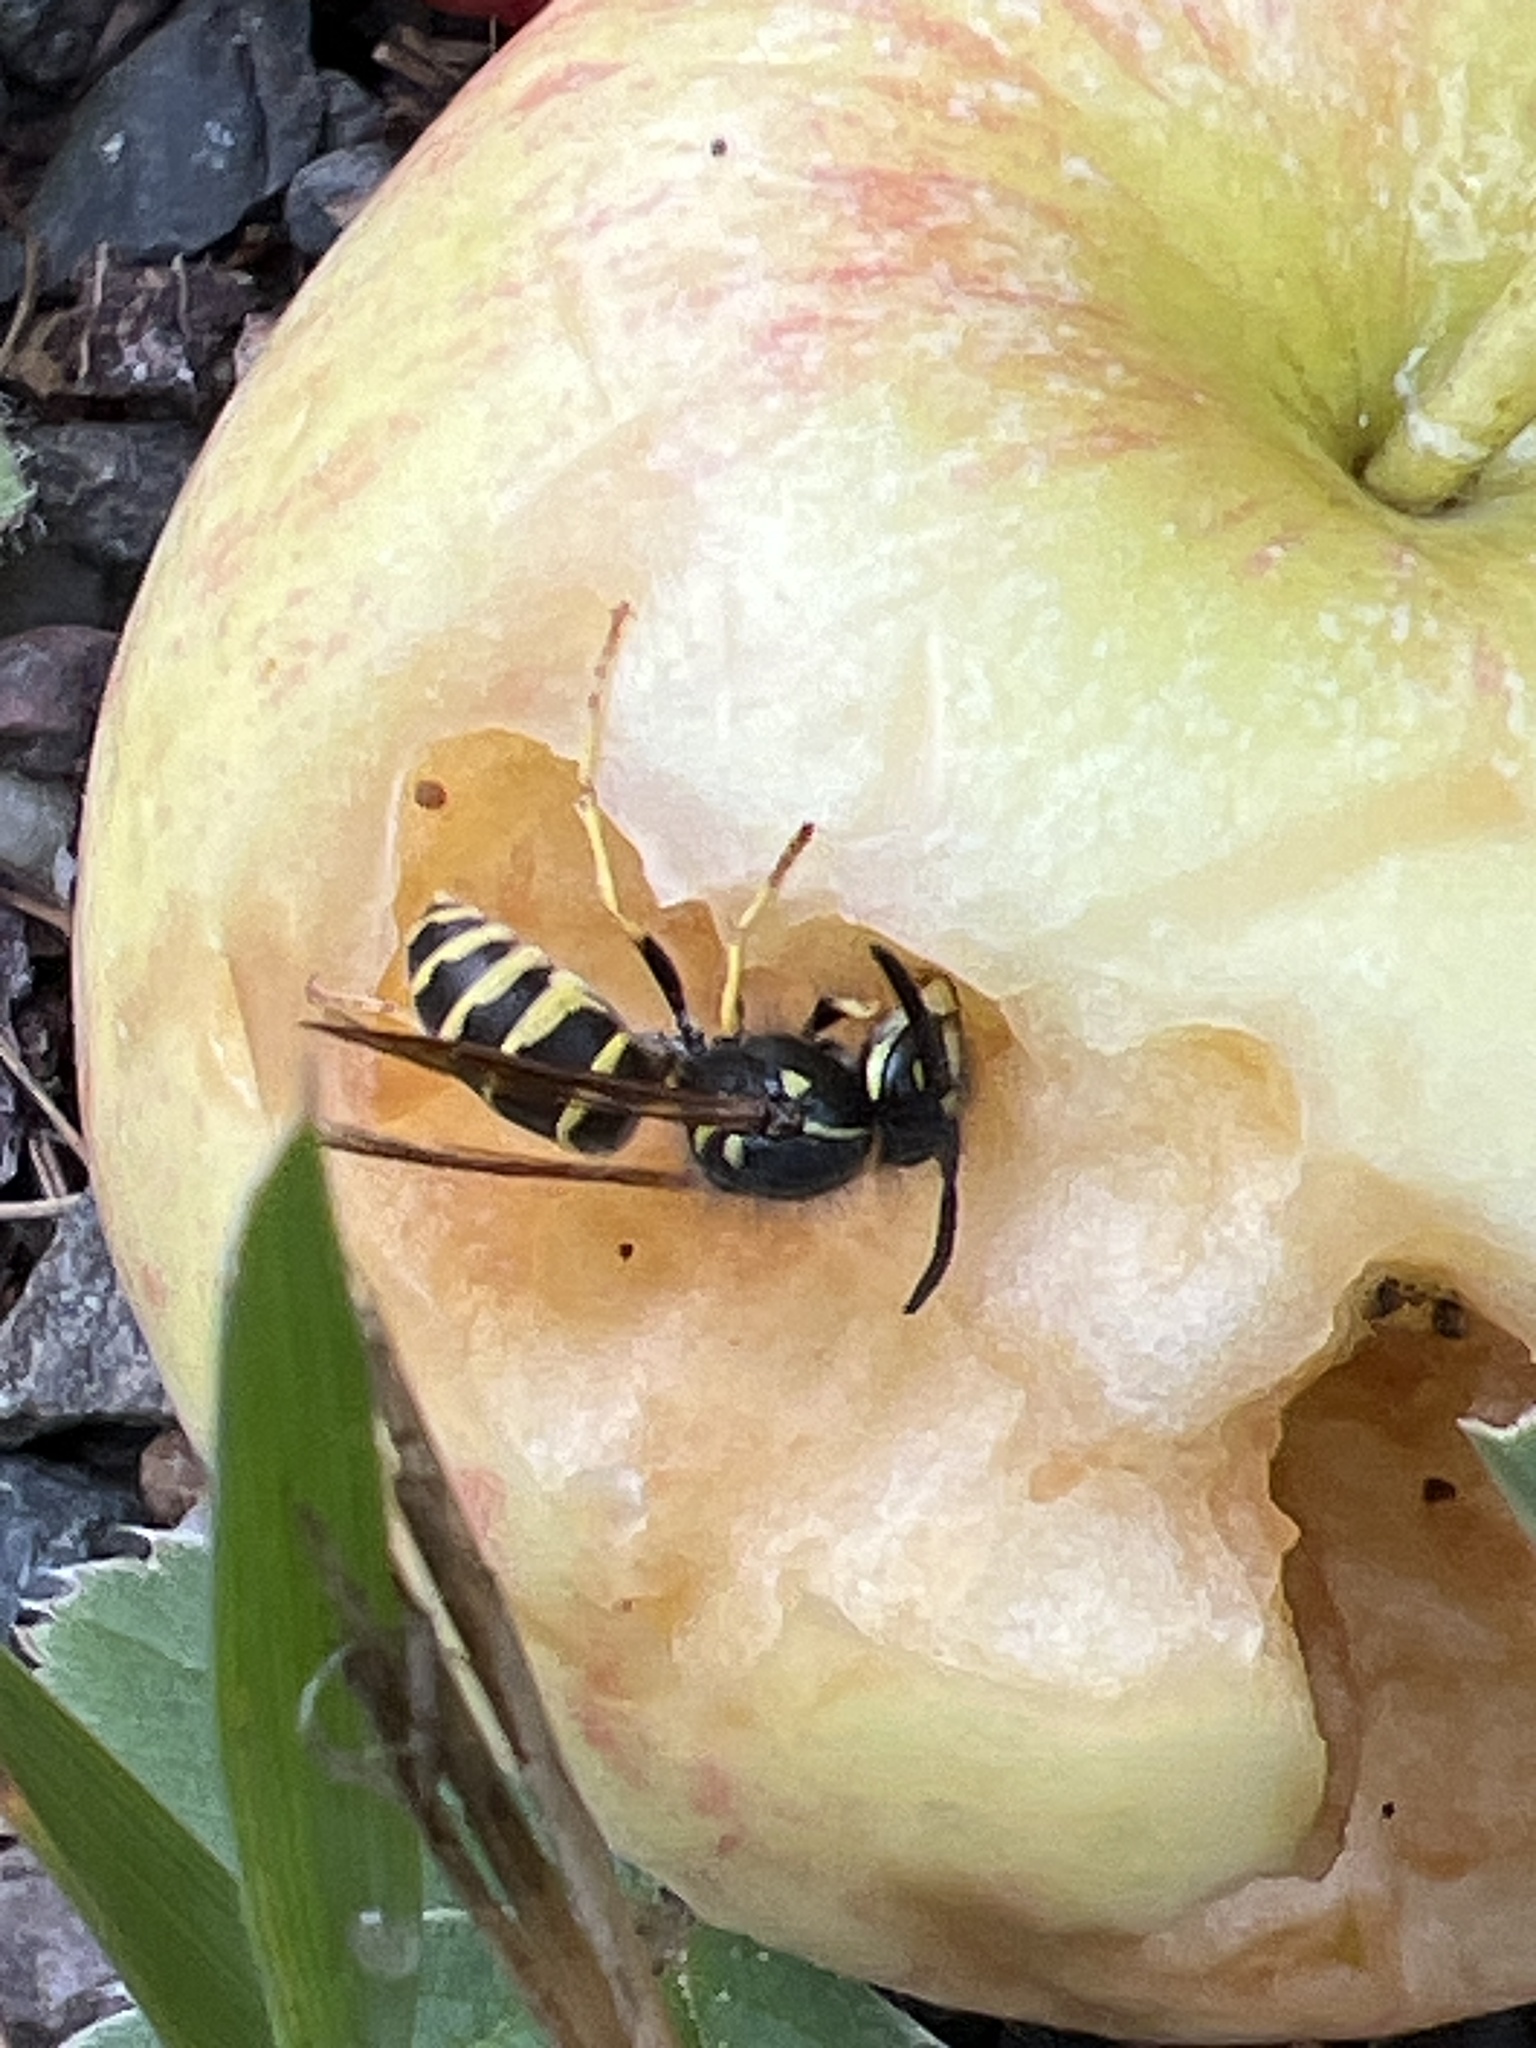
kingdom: Animalia
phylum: Arthropoda
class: Insecta
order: Hymenoptera
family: Vespidae
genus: Vespula
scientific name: Vespula alascensis
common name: Alaska yellowjacket
